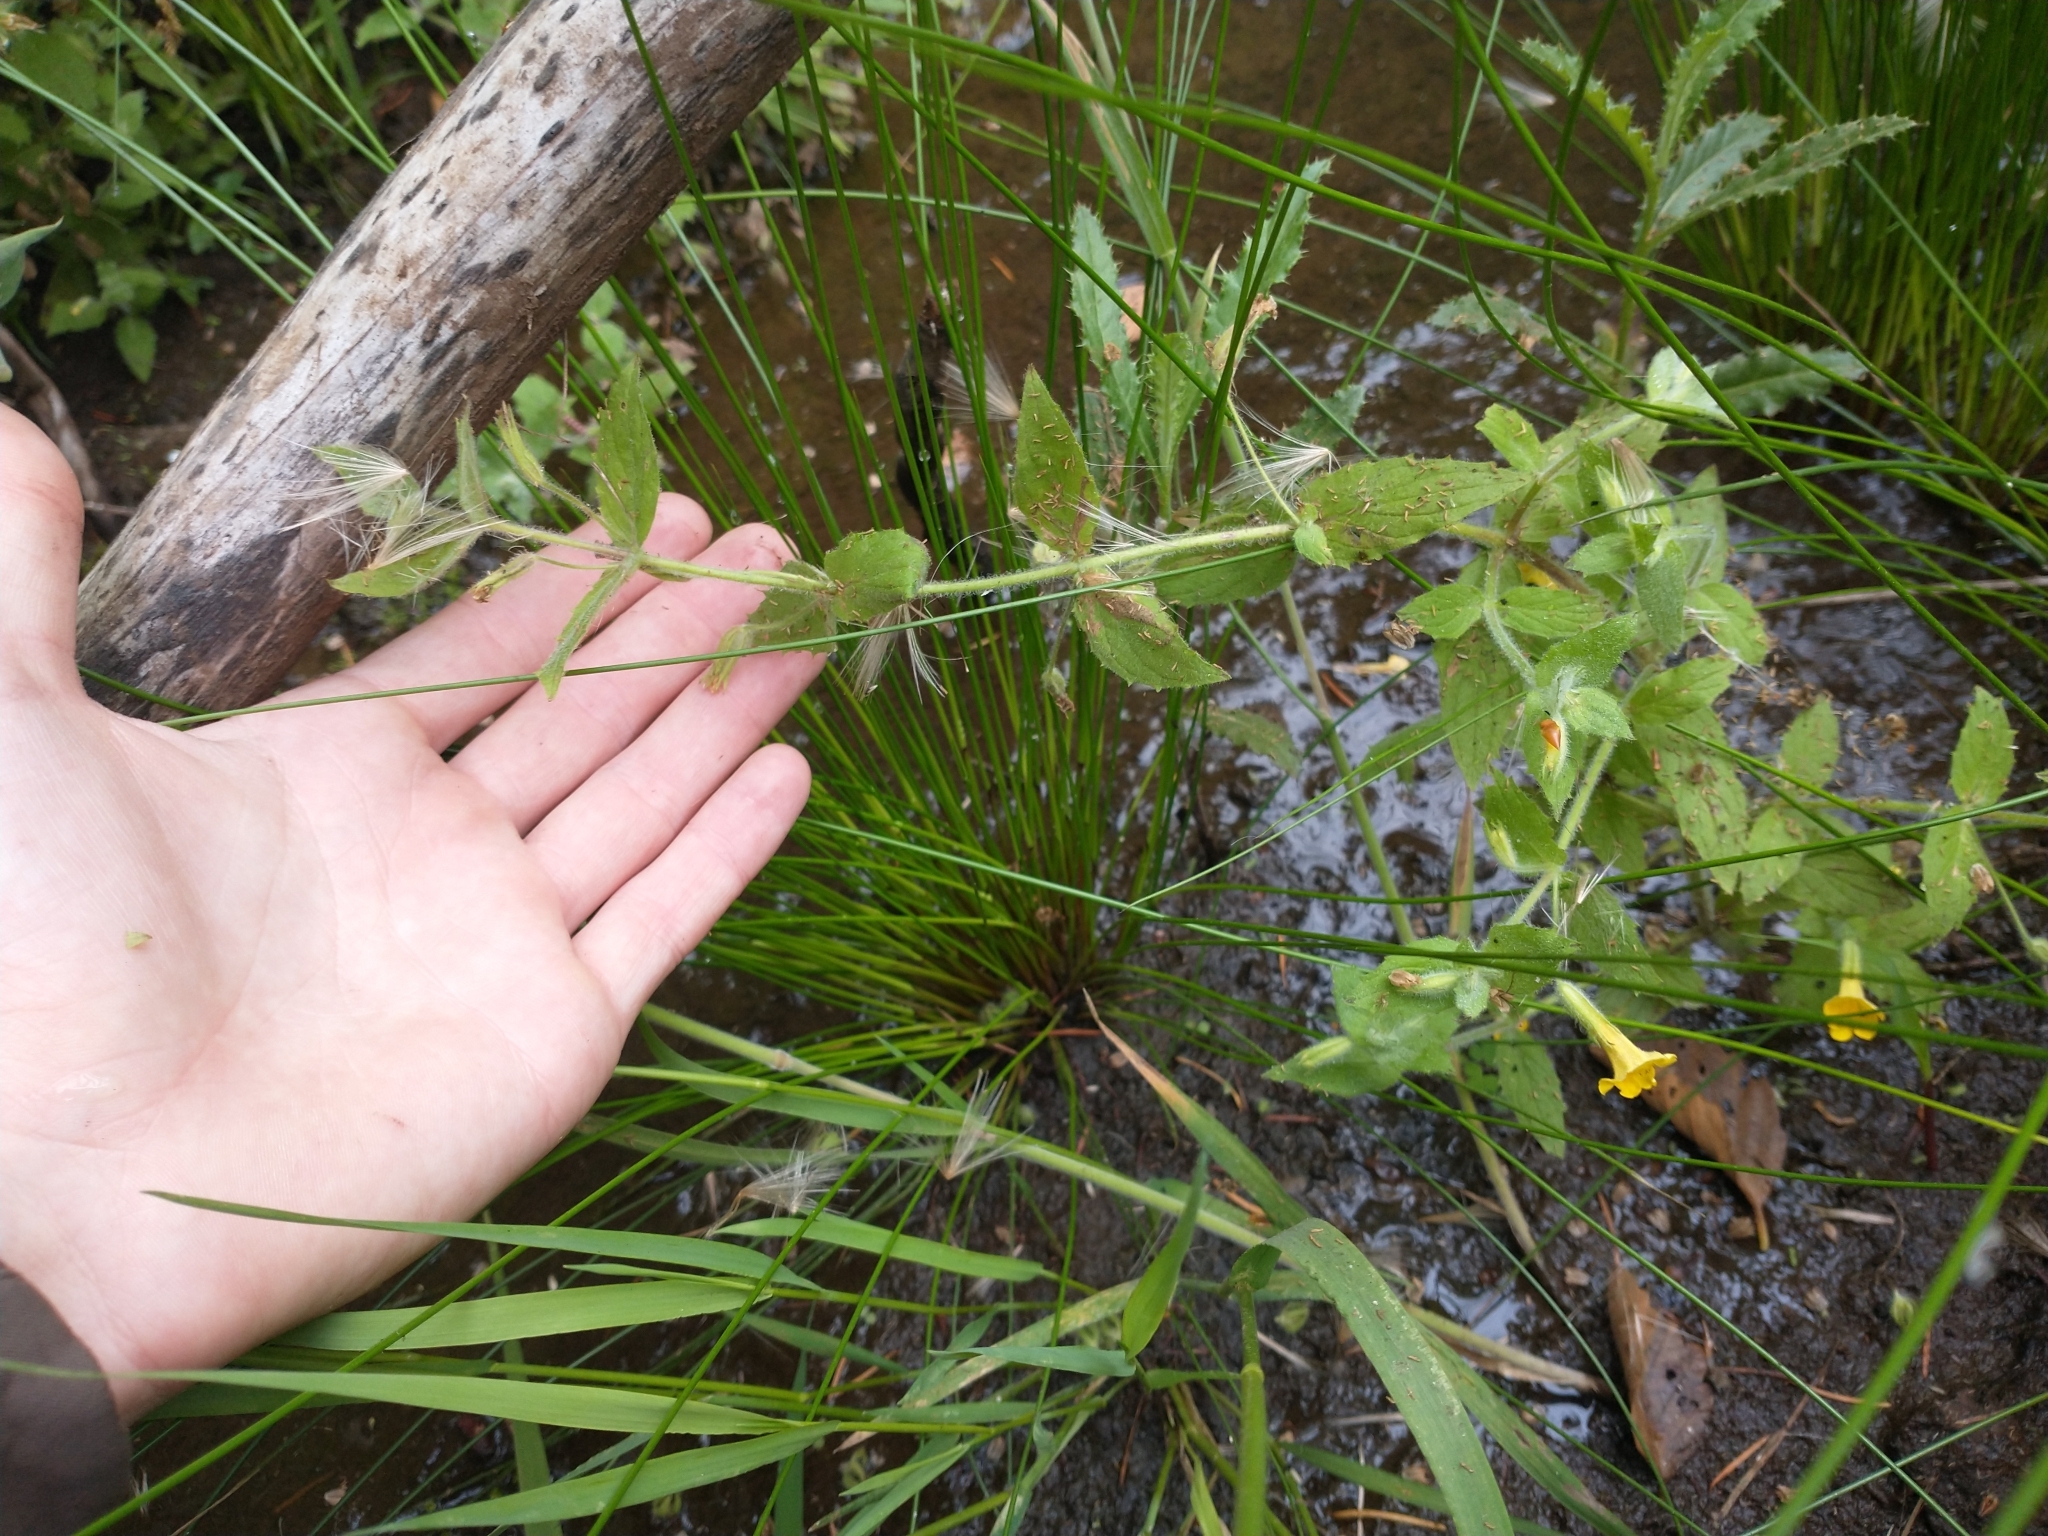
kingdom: Plantae
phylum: Tracheophyta
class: Magnoliopsida
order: Lamiales
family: Phrymaceae
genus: Erythranthe
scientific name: Erythranthe ptilota
